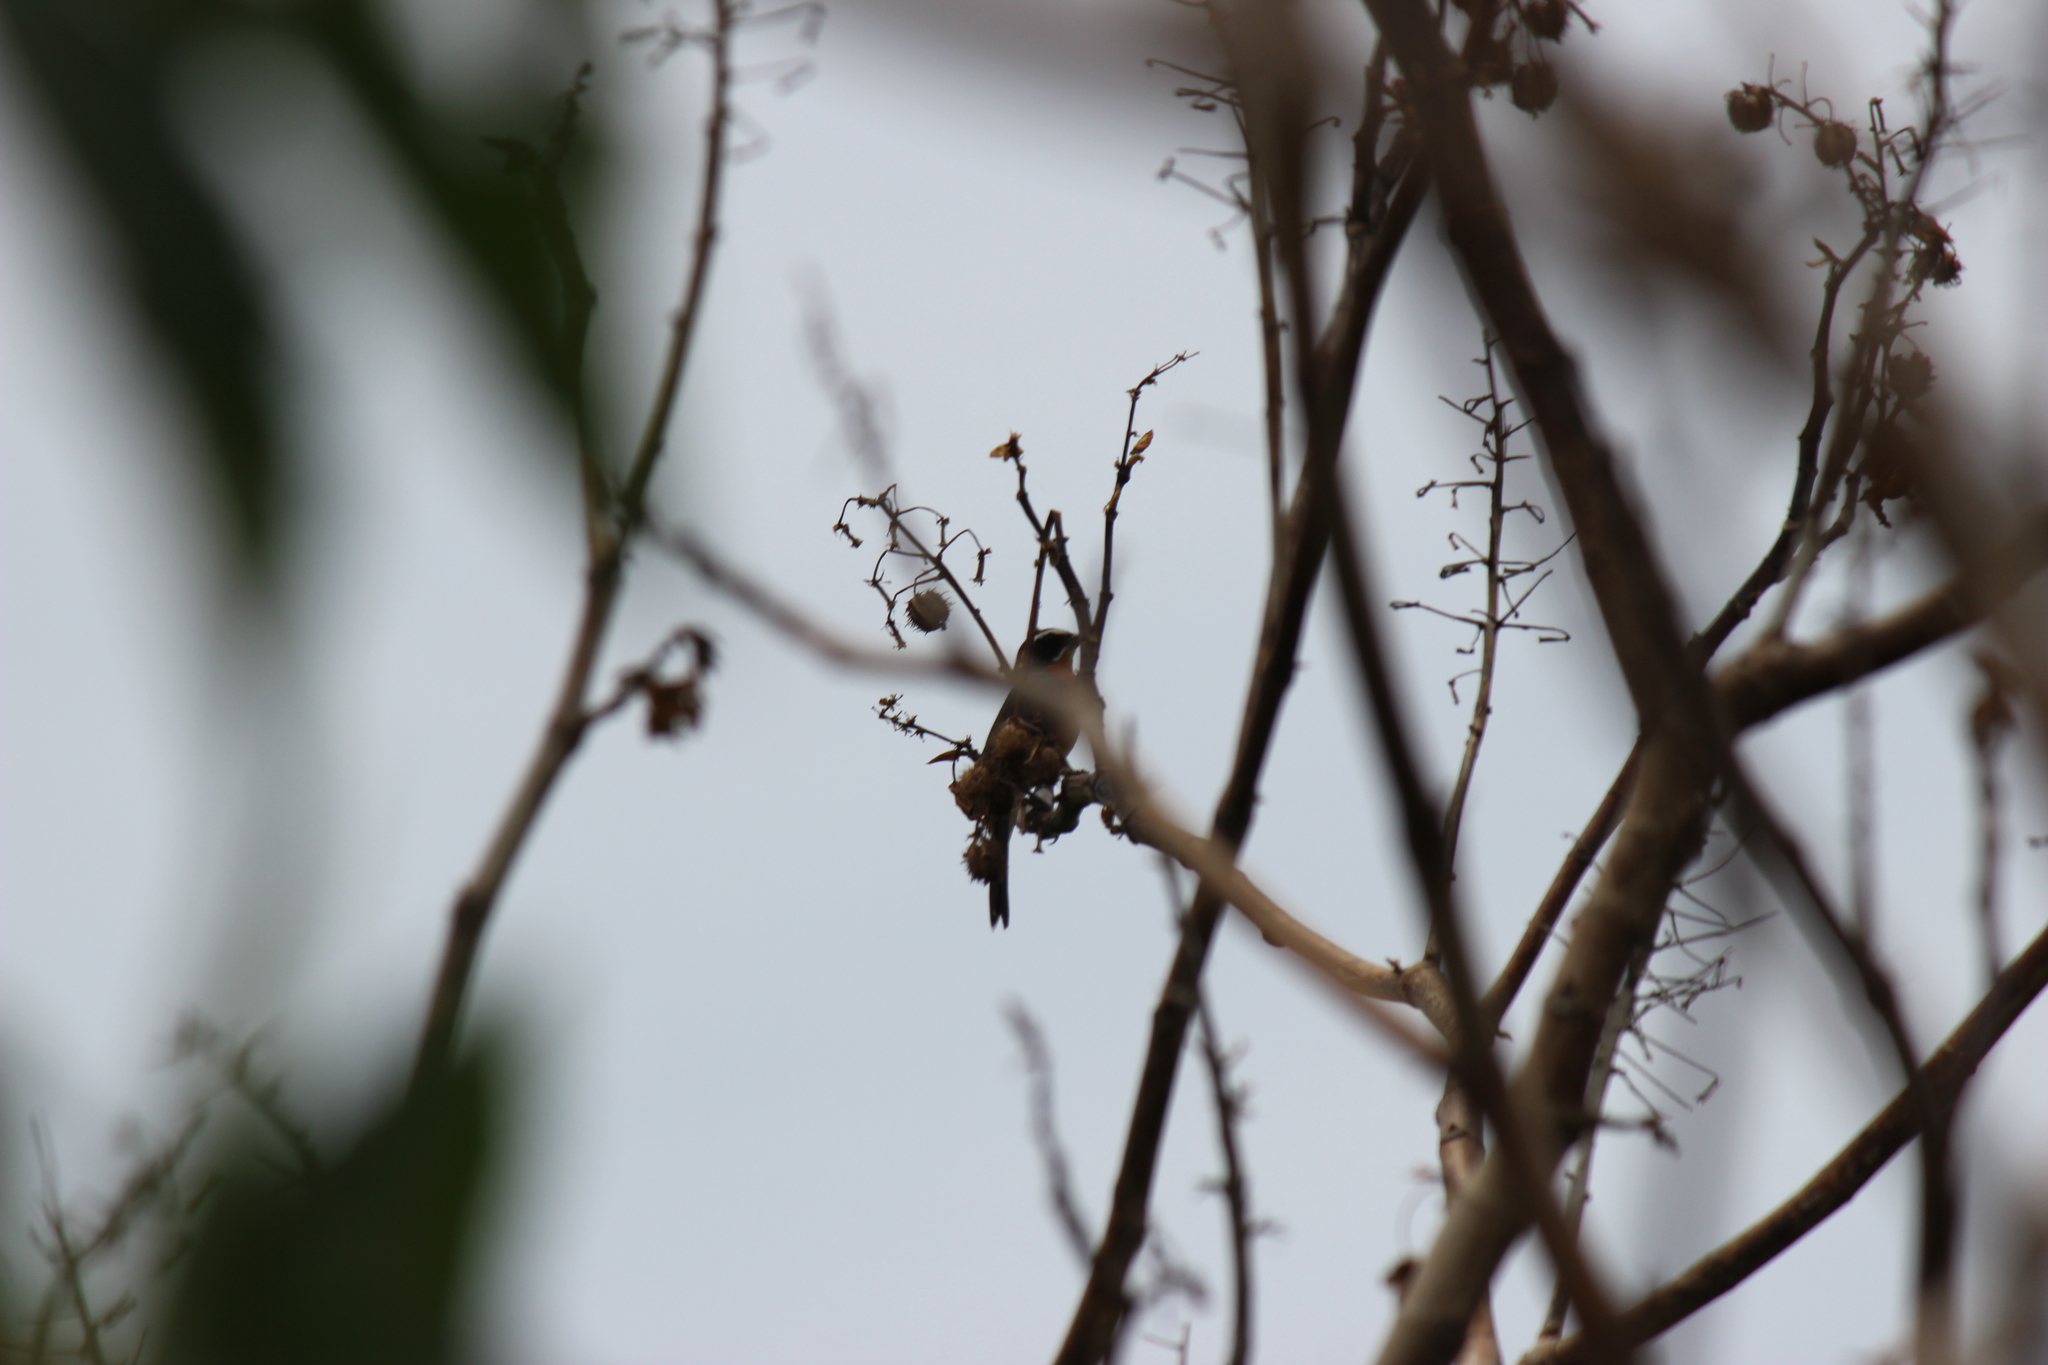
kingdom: Animalia
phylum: Chordata
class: Aves
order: Passeriformes
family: Thraupidae
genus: Poospiza
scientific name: Poospiza nigrorufa
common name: Black-and-rufous warbling finch
